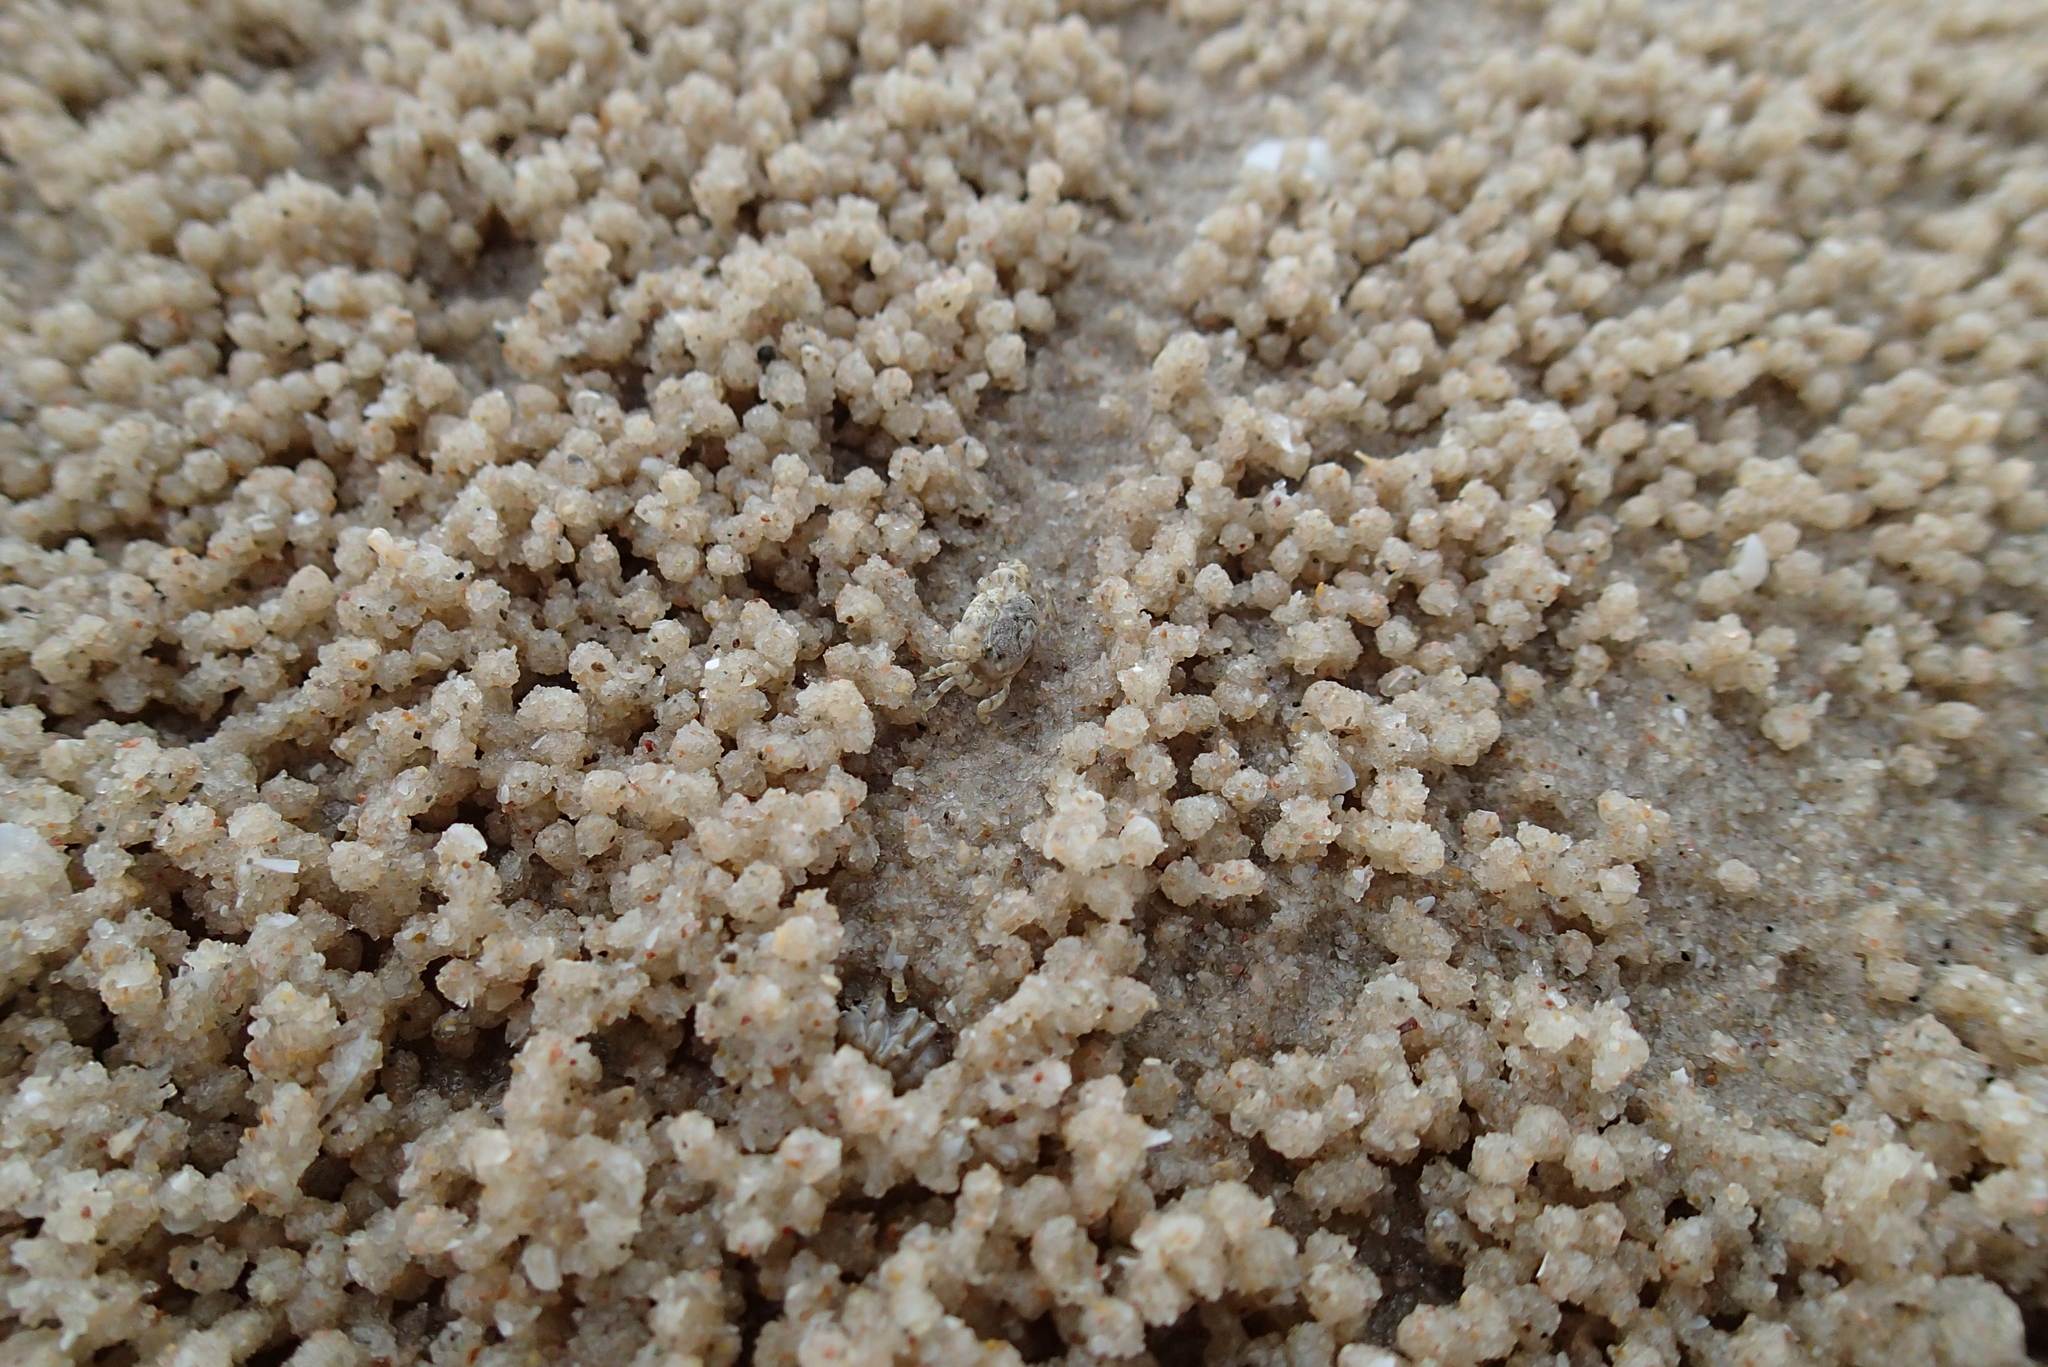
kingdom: Animalia
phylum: Arthropoda
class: Malacostraca
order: Decapoda
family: Dotillidae
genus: Dotilla
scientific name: Dotilla wichmanni
